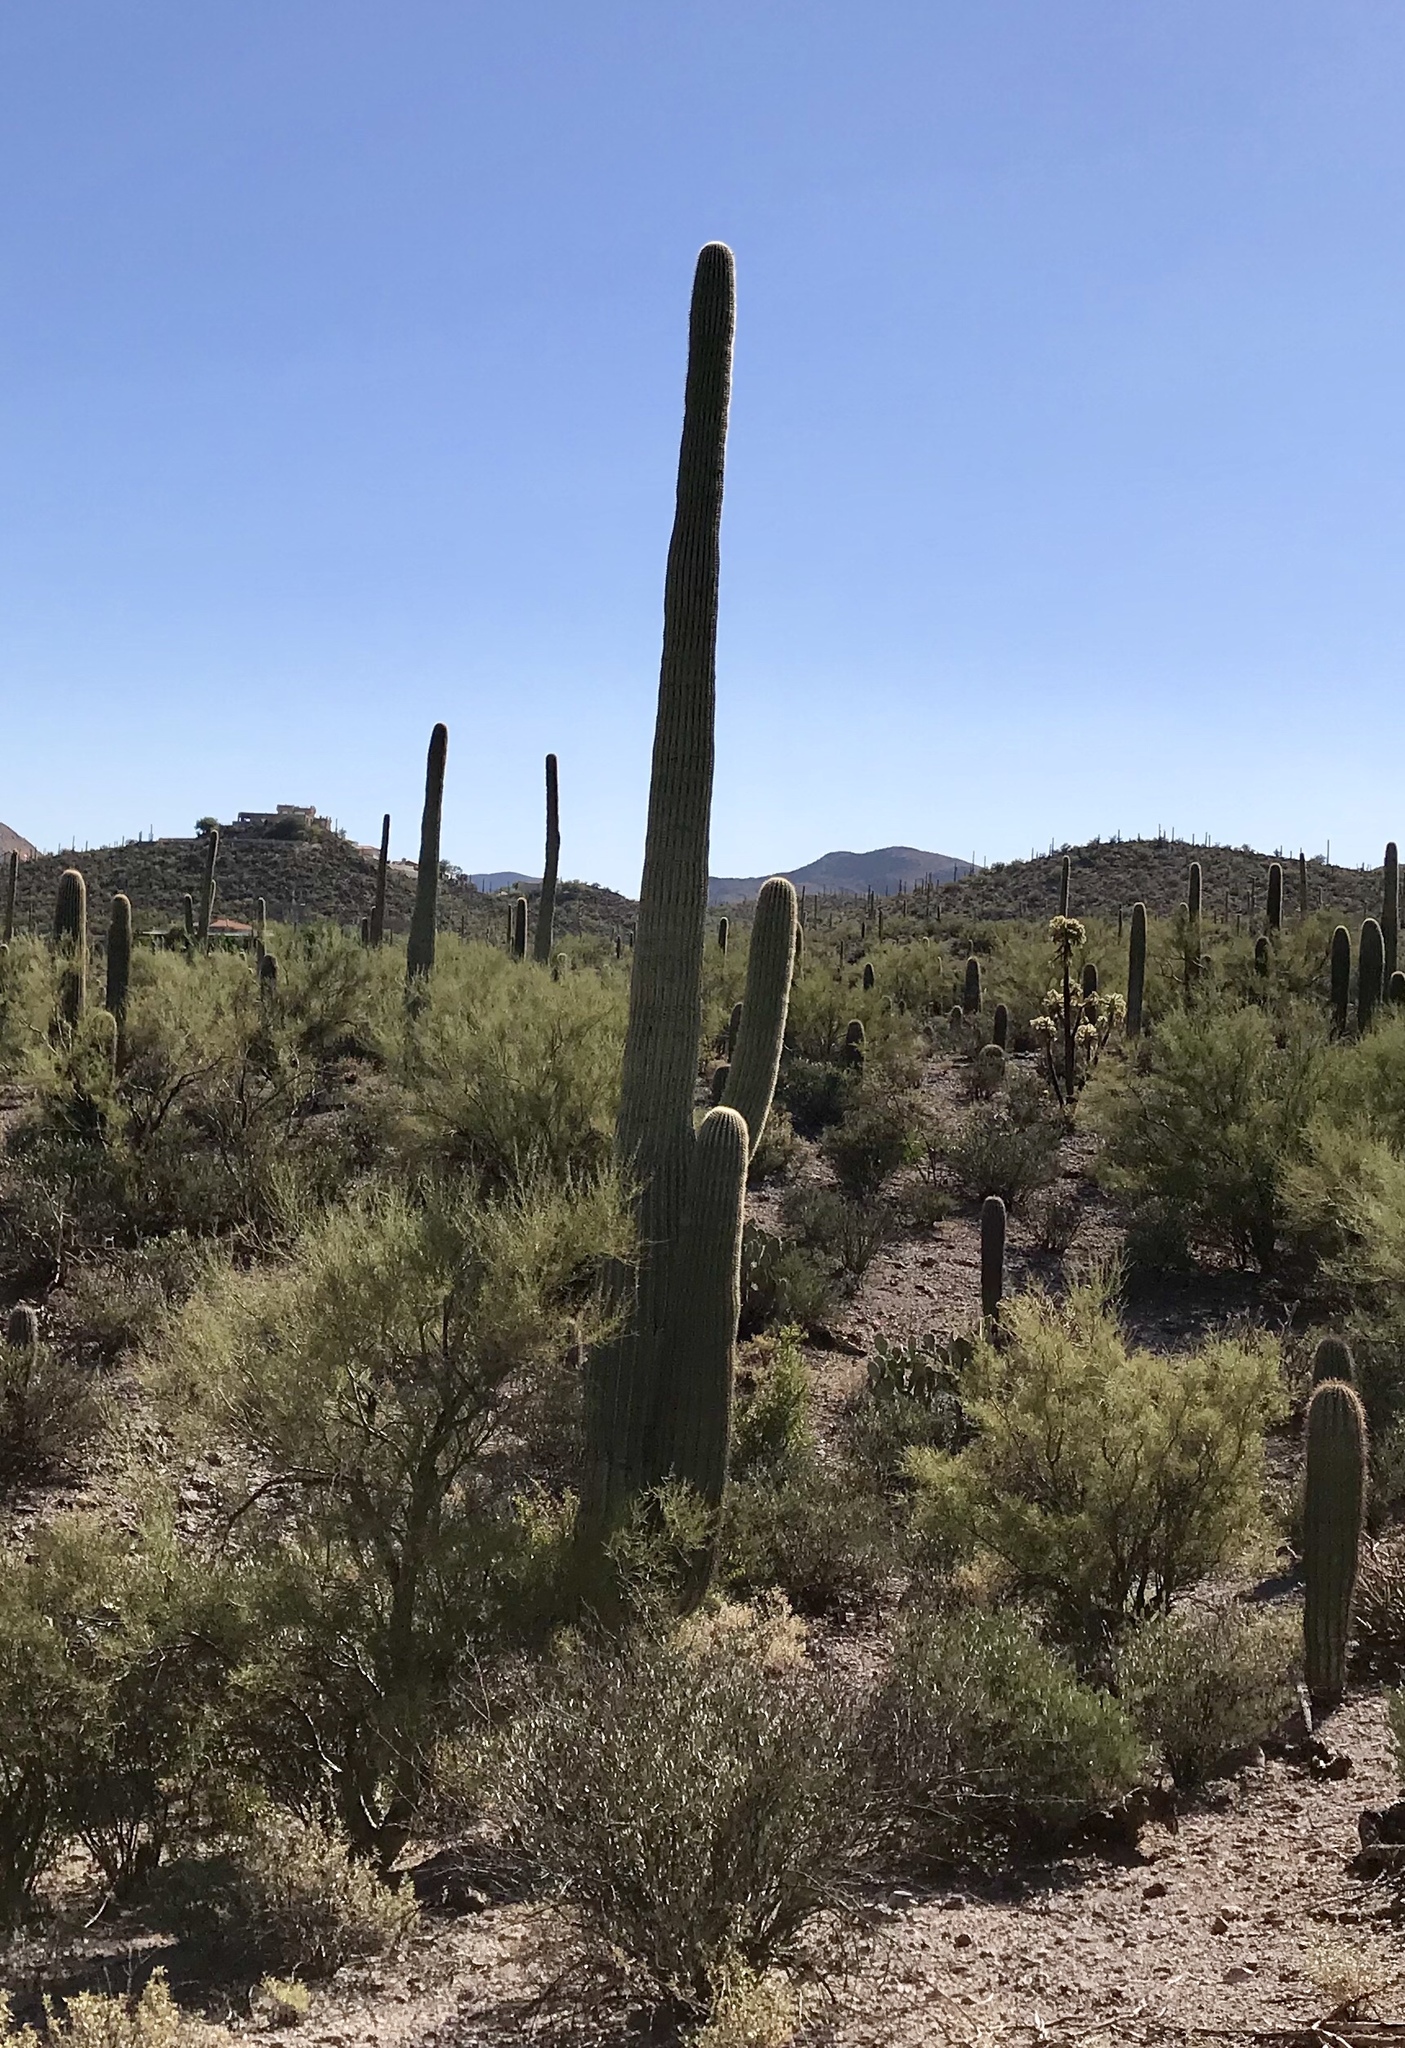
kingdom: Plantae
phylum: Tracheophyta
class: Magnoliopsida
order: Caryophyllales
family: Cactaceae
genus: Carnegiea
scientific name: Carnegiea gigantea
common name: Saguaro
